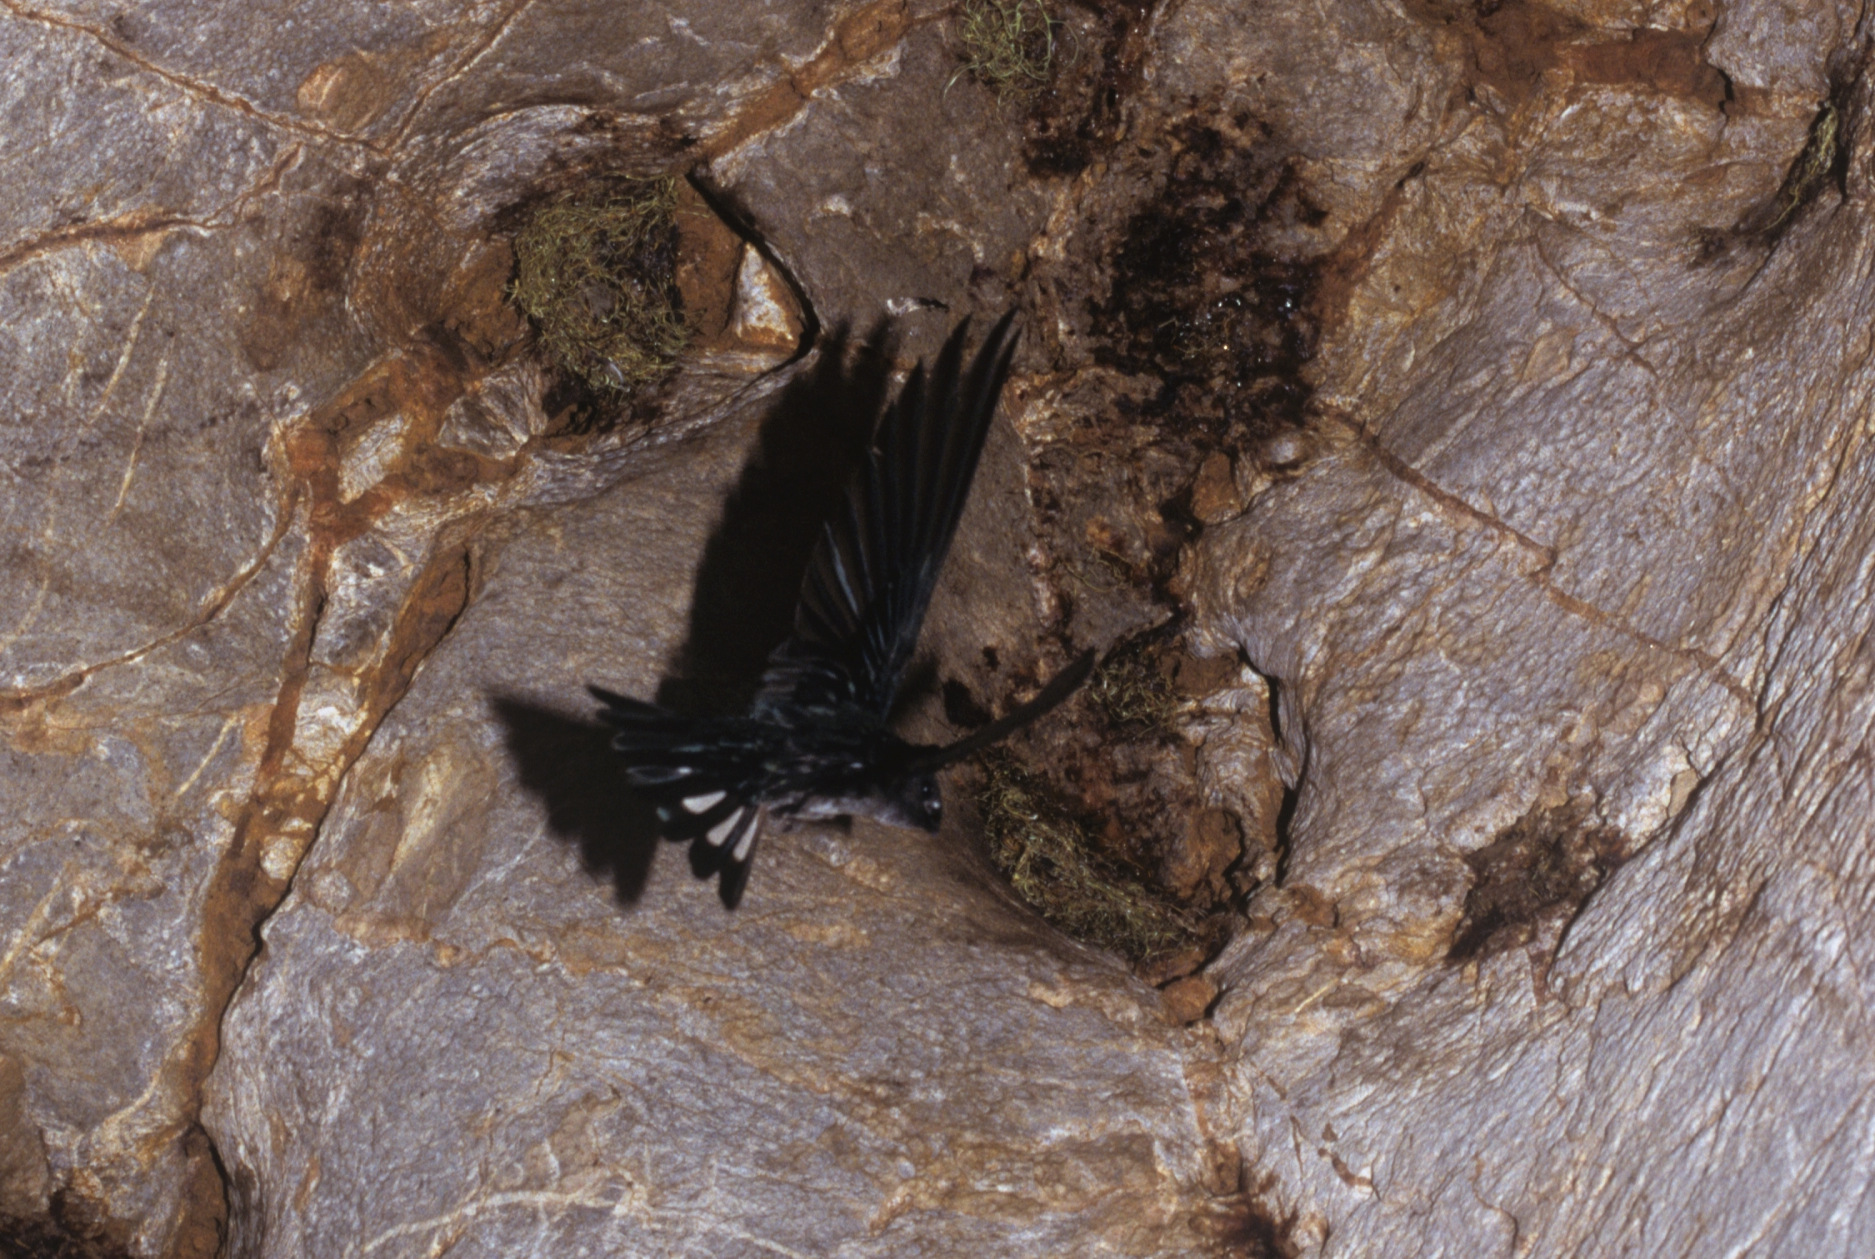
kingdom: Animalia
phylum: Chordata
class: Aves
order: Apodiformes
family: Apodidae
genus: Collocalia
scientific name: Collocalia esculenta
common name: Glossy swiftlet
